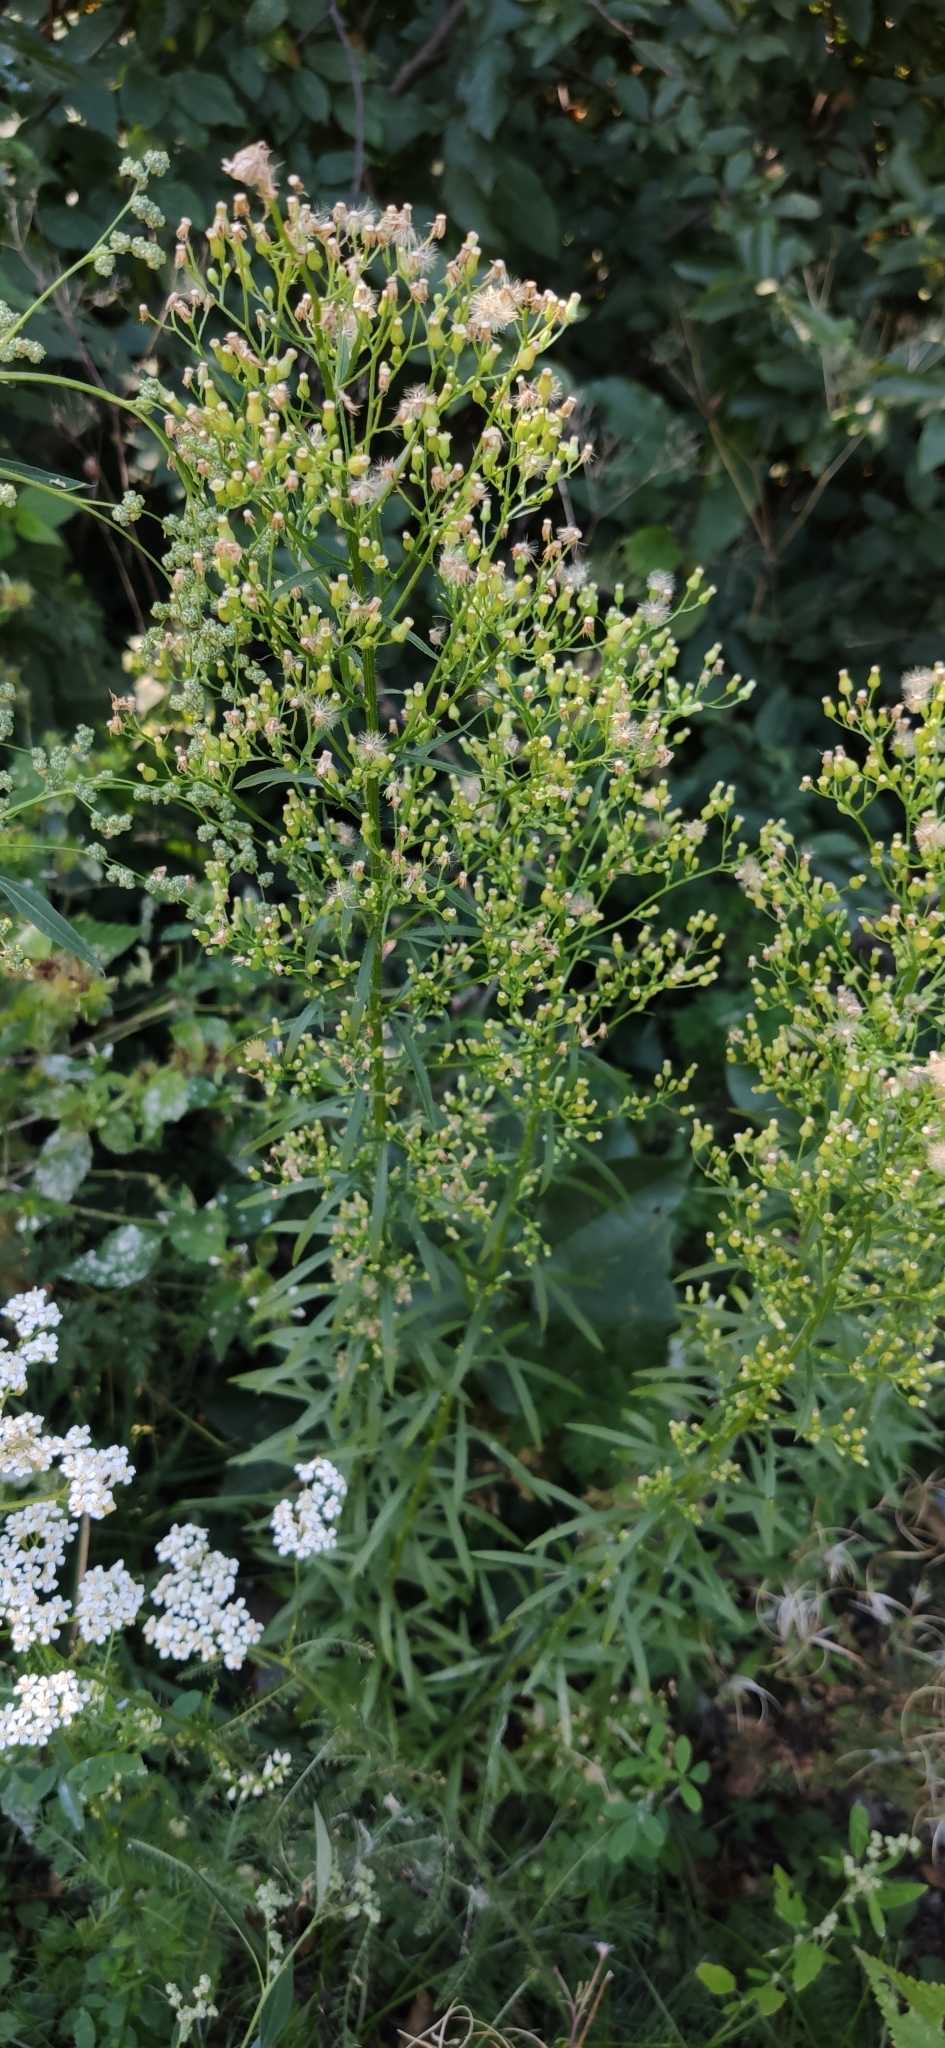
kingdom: Plantae
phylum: Tracheophyta
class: Magnoliopsida
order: Asterales
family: Asteraceae
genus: Erigeron
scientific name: Erigeron canadensis
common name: Canadian fleabane
